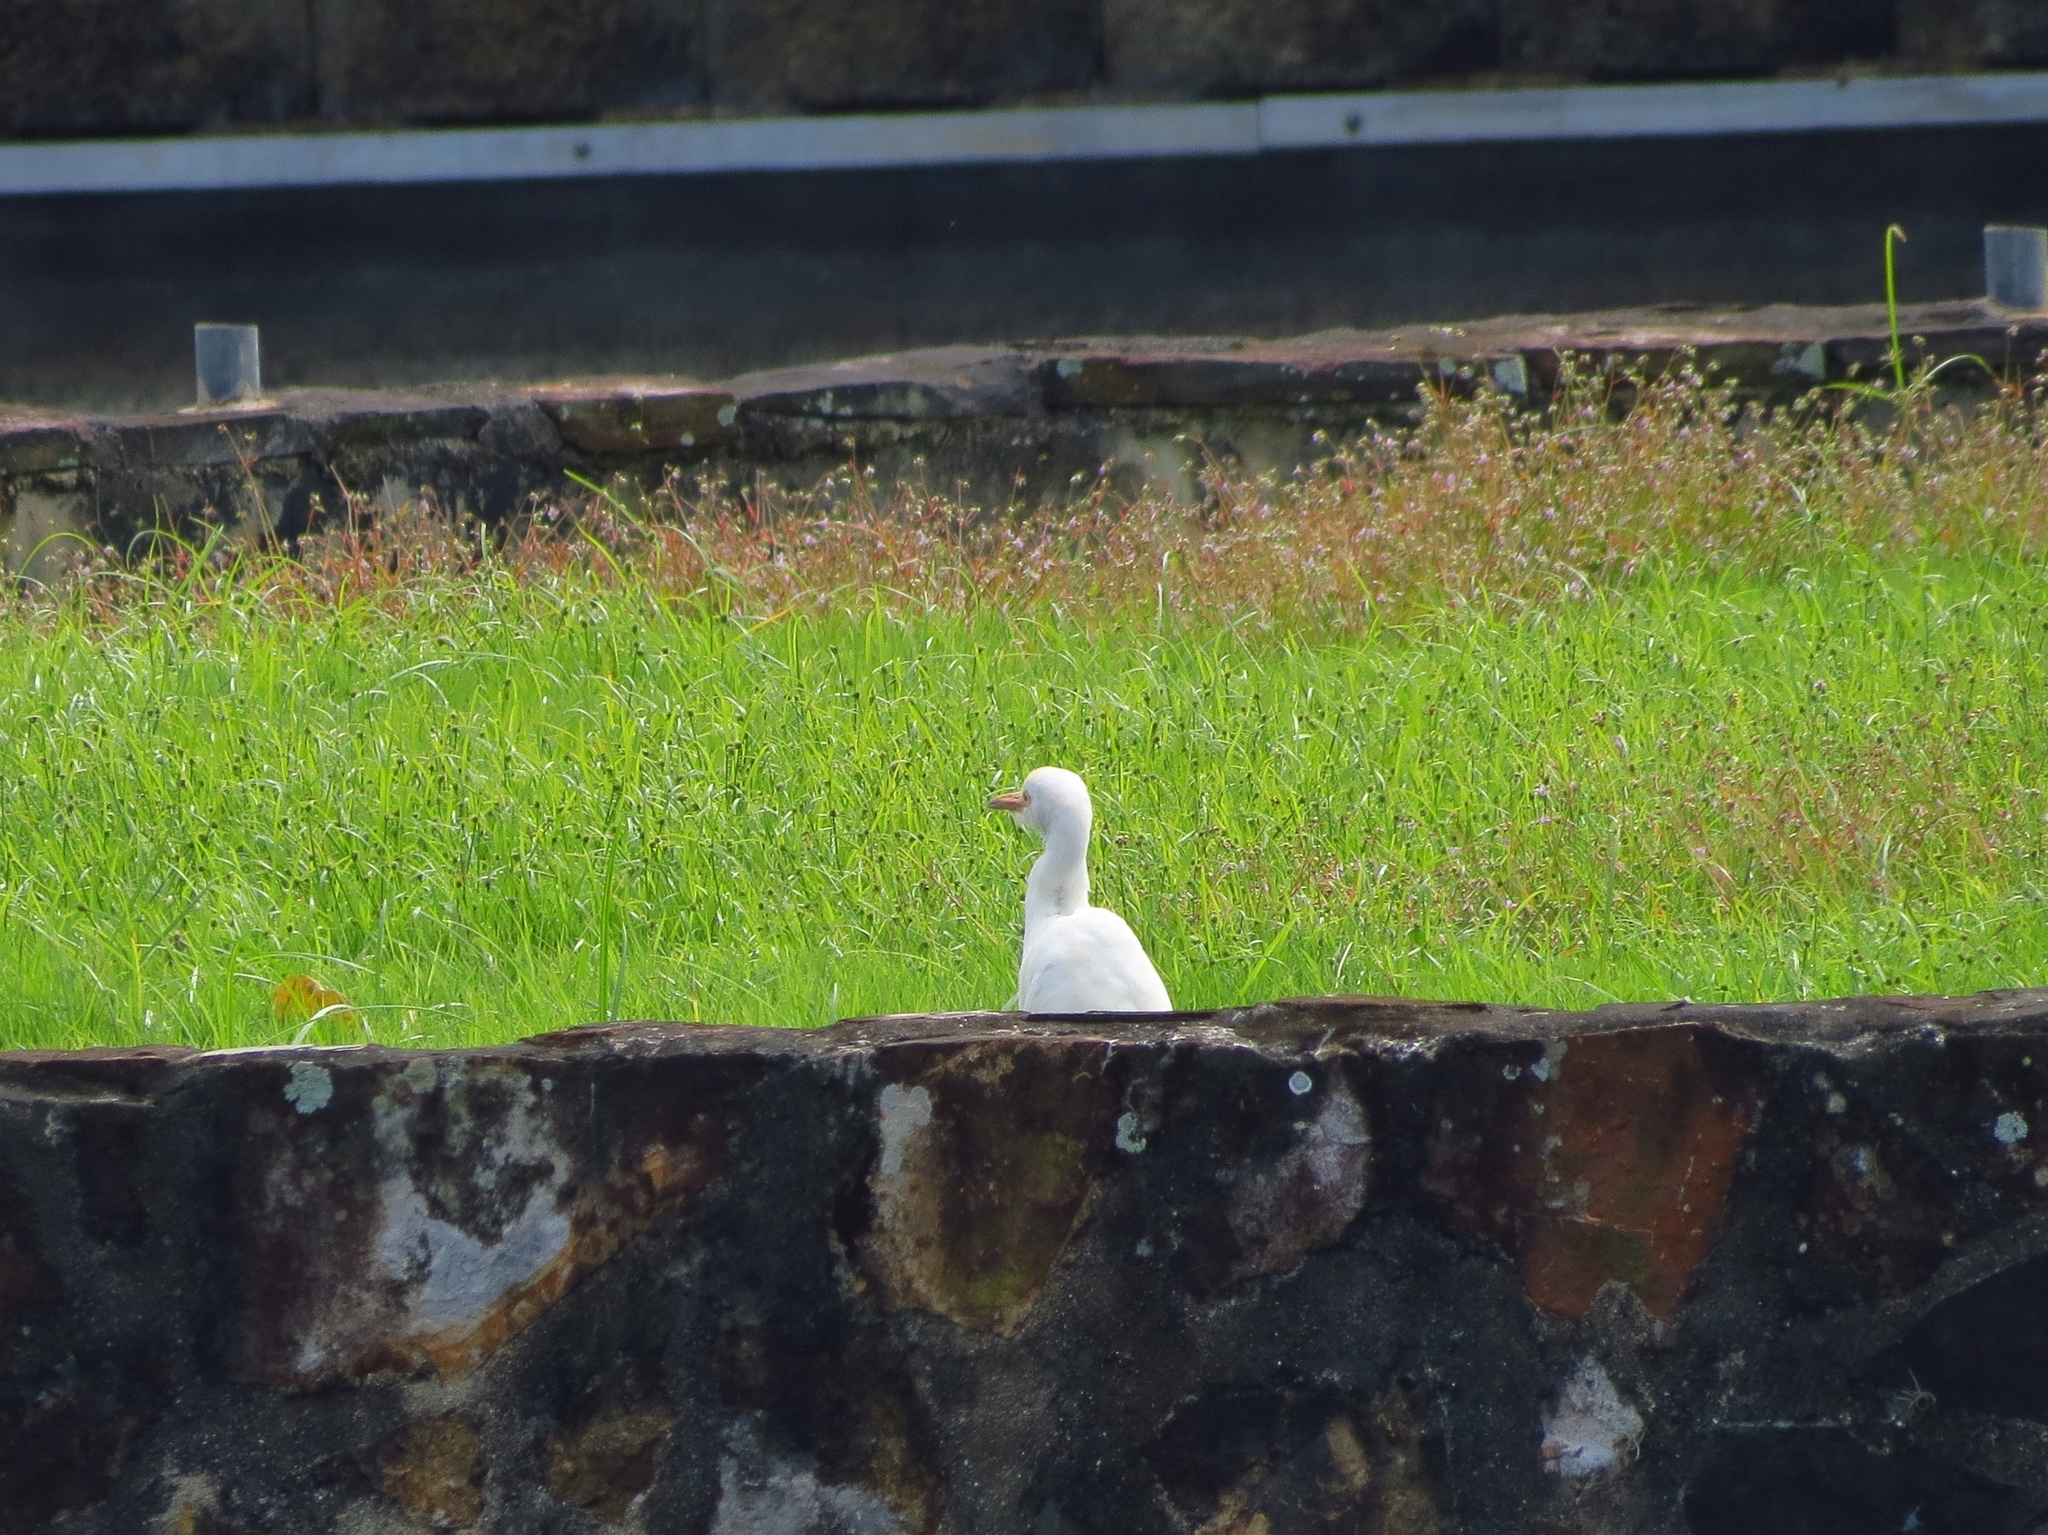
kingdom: Animalia
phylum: Chordata
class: Aves
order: Pelecaniformes
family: Ardeidae
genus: Bubulcus
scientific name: Bubulcus ibis
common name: Cattle egret
